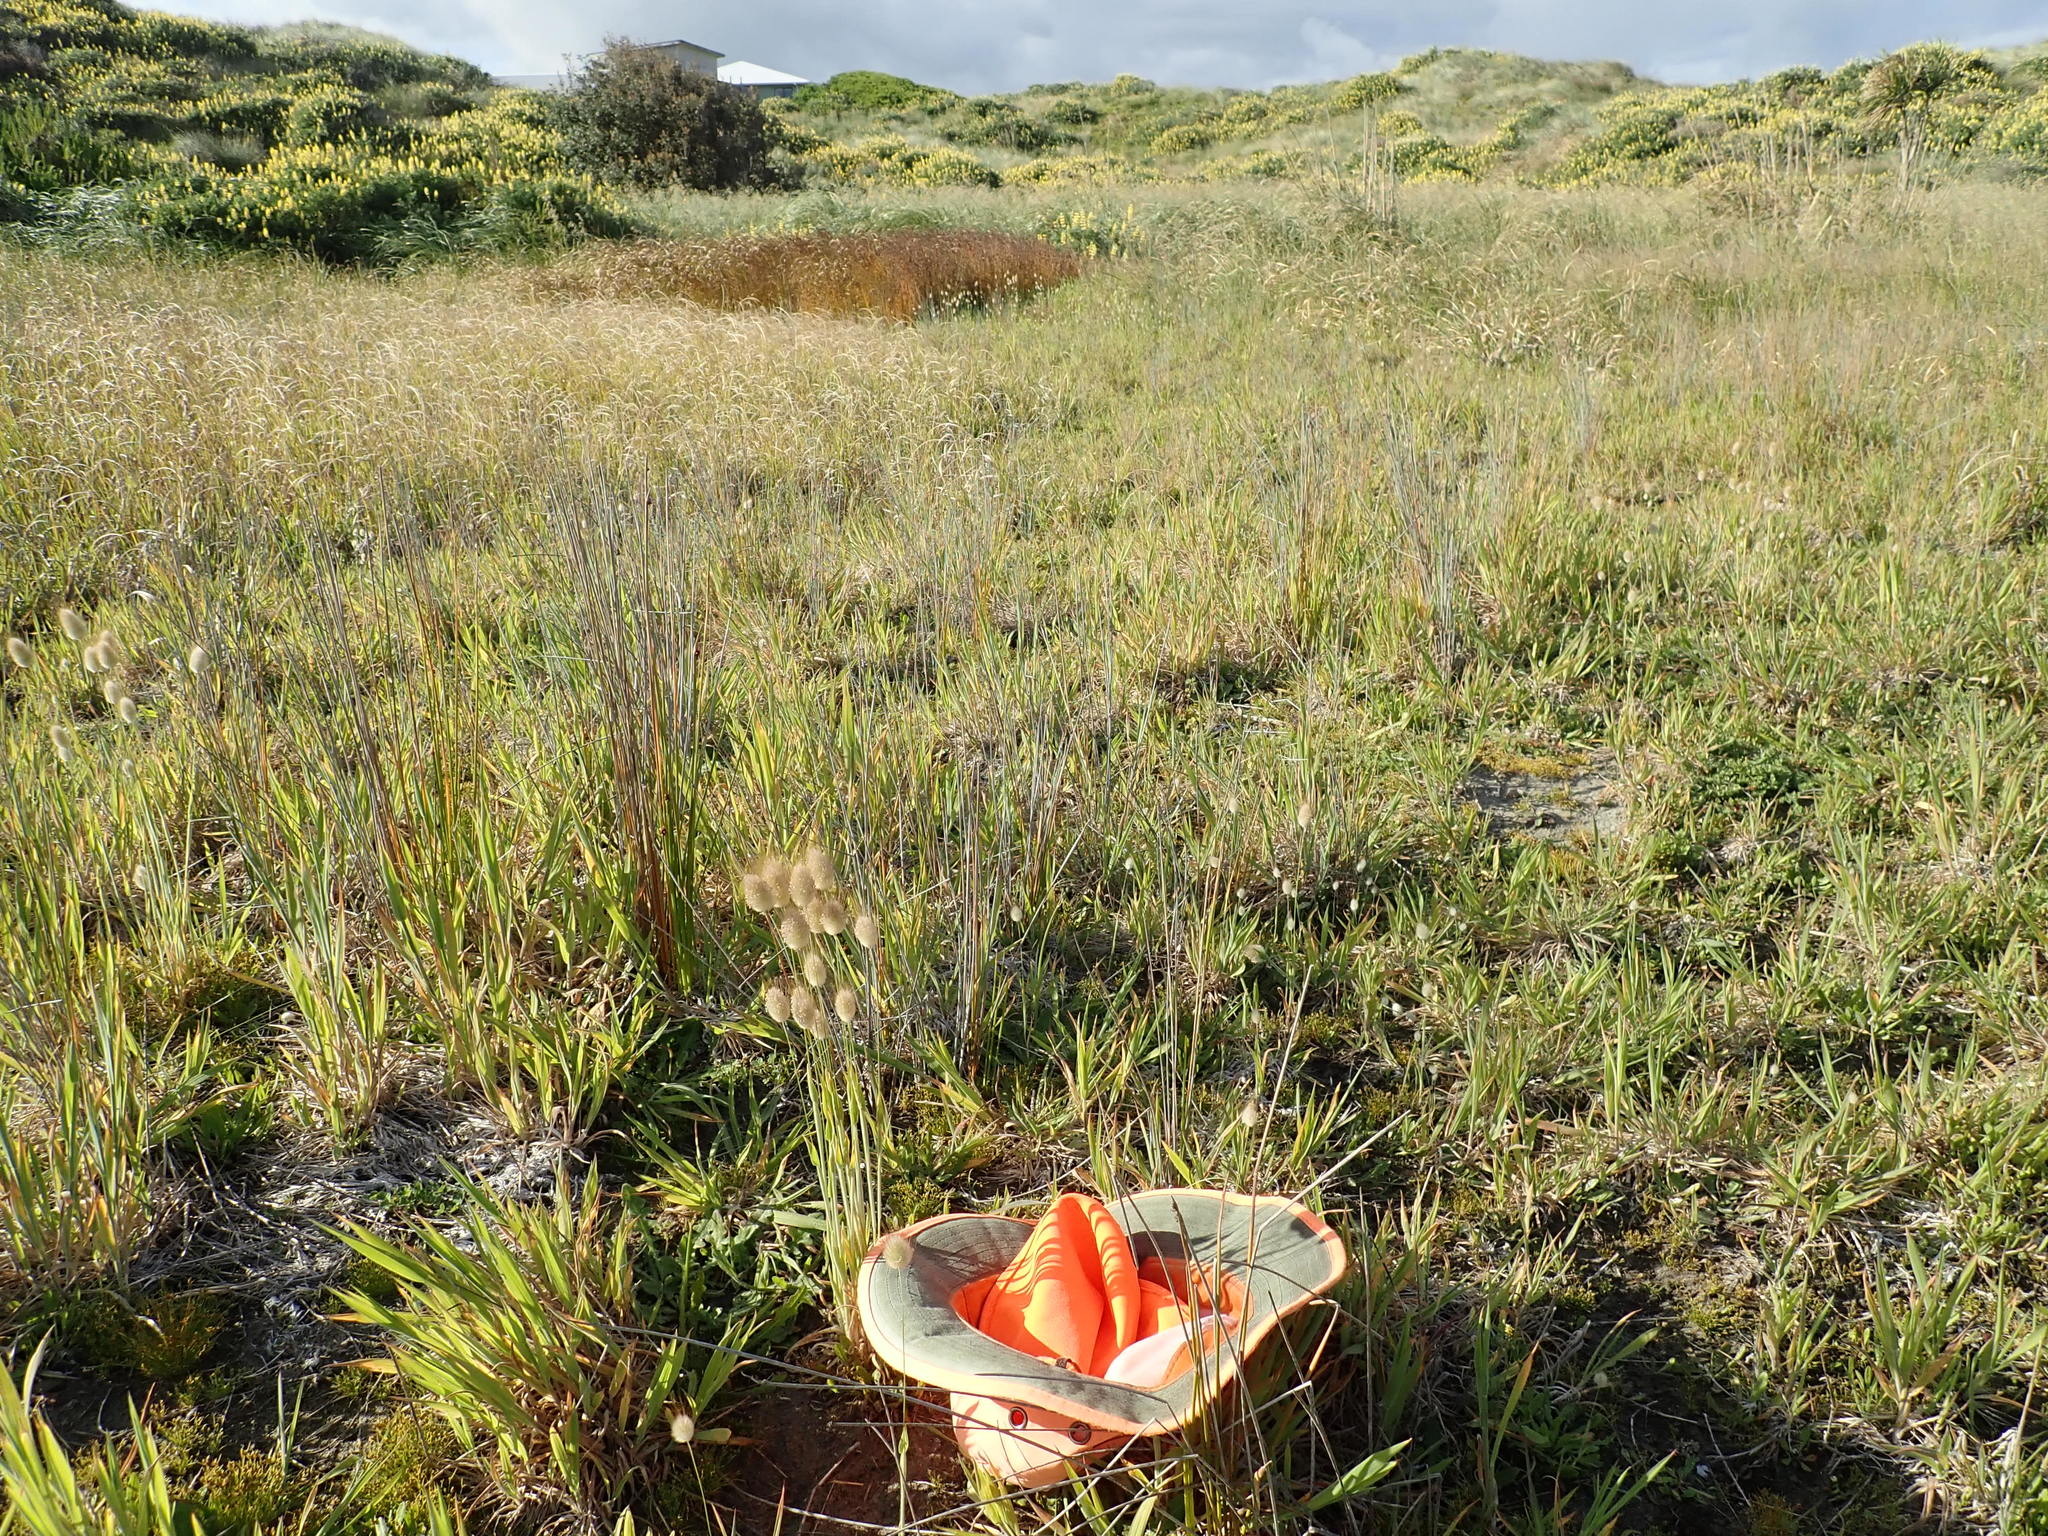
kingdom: Plantae
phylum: Tracheophyta
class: Liliopsida
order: Poales
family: Poaceae
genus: Lagurus
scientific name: Lagurus ovatus
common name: Hare's-tail
